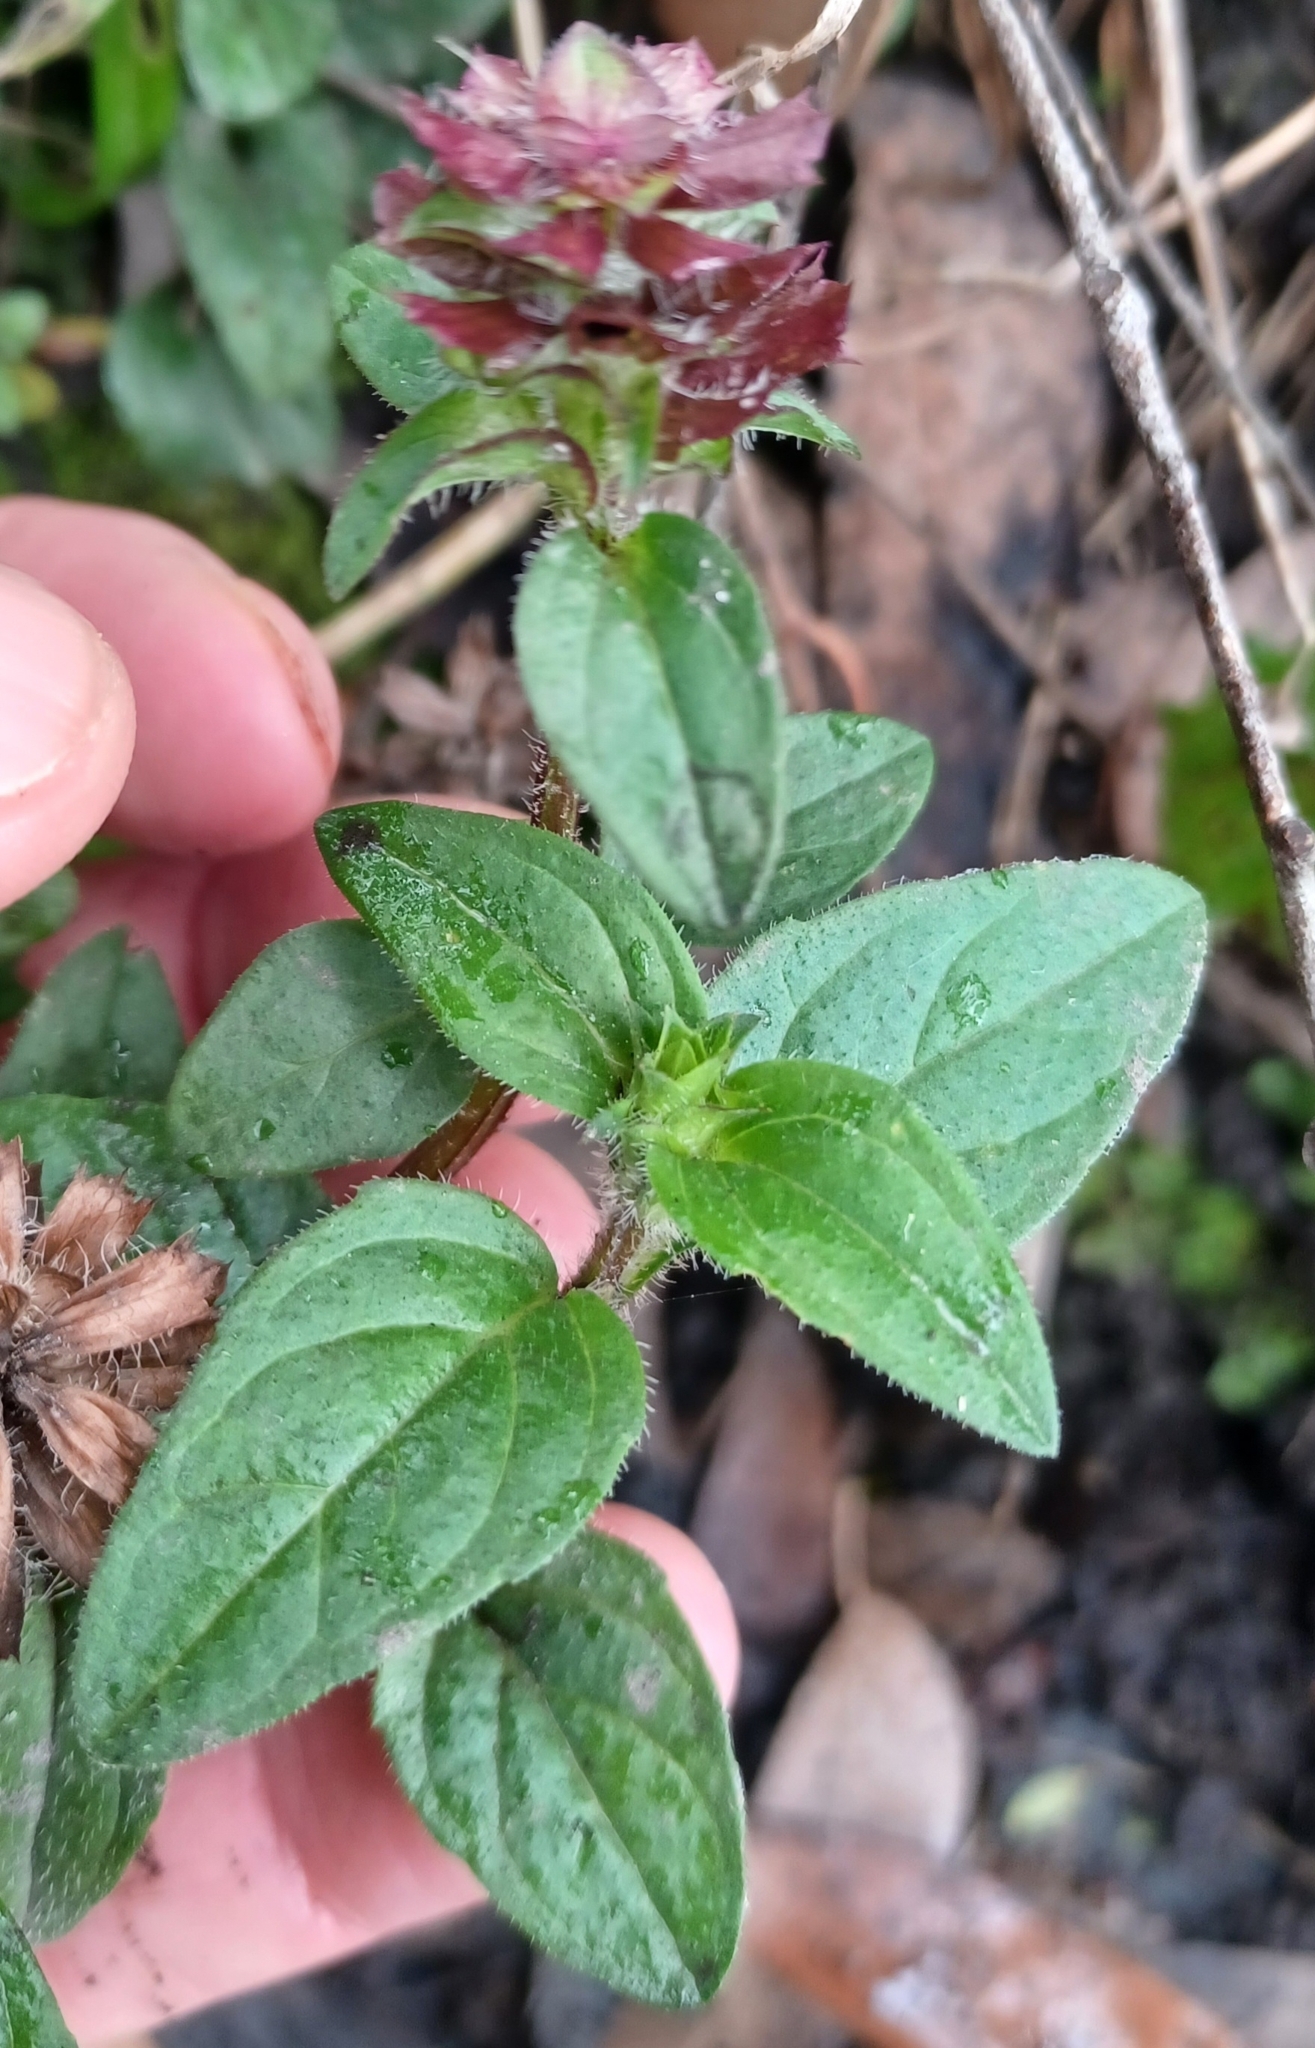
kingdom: Plantae
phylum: Tracheophyta
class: Magnoliopsida
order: Lamiales
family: Lamiaceae
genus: Prunella
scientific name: Prunella vulgaris
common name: Heal-all
